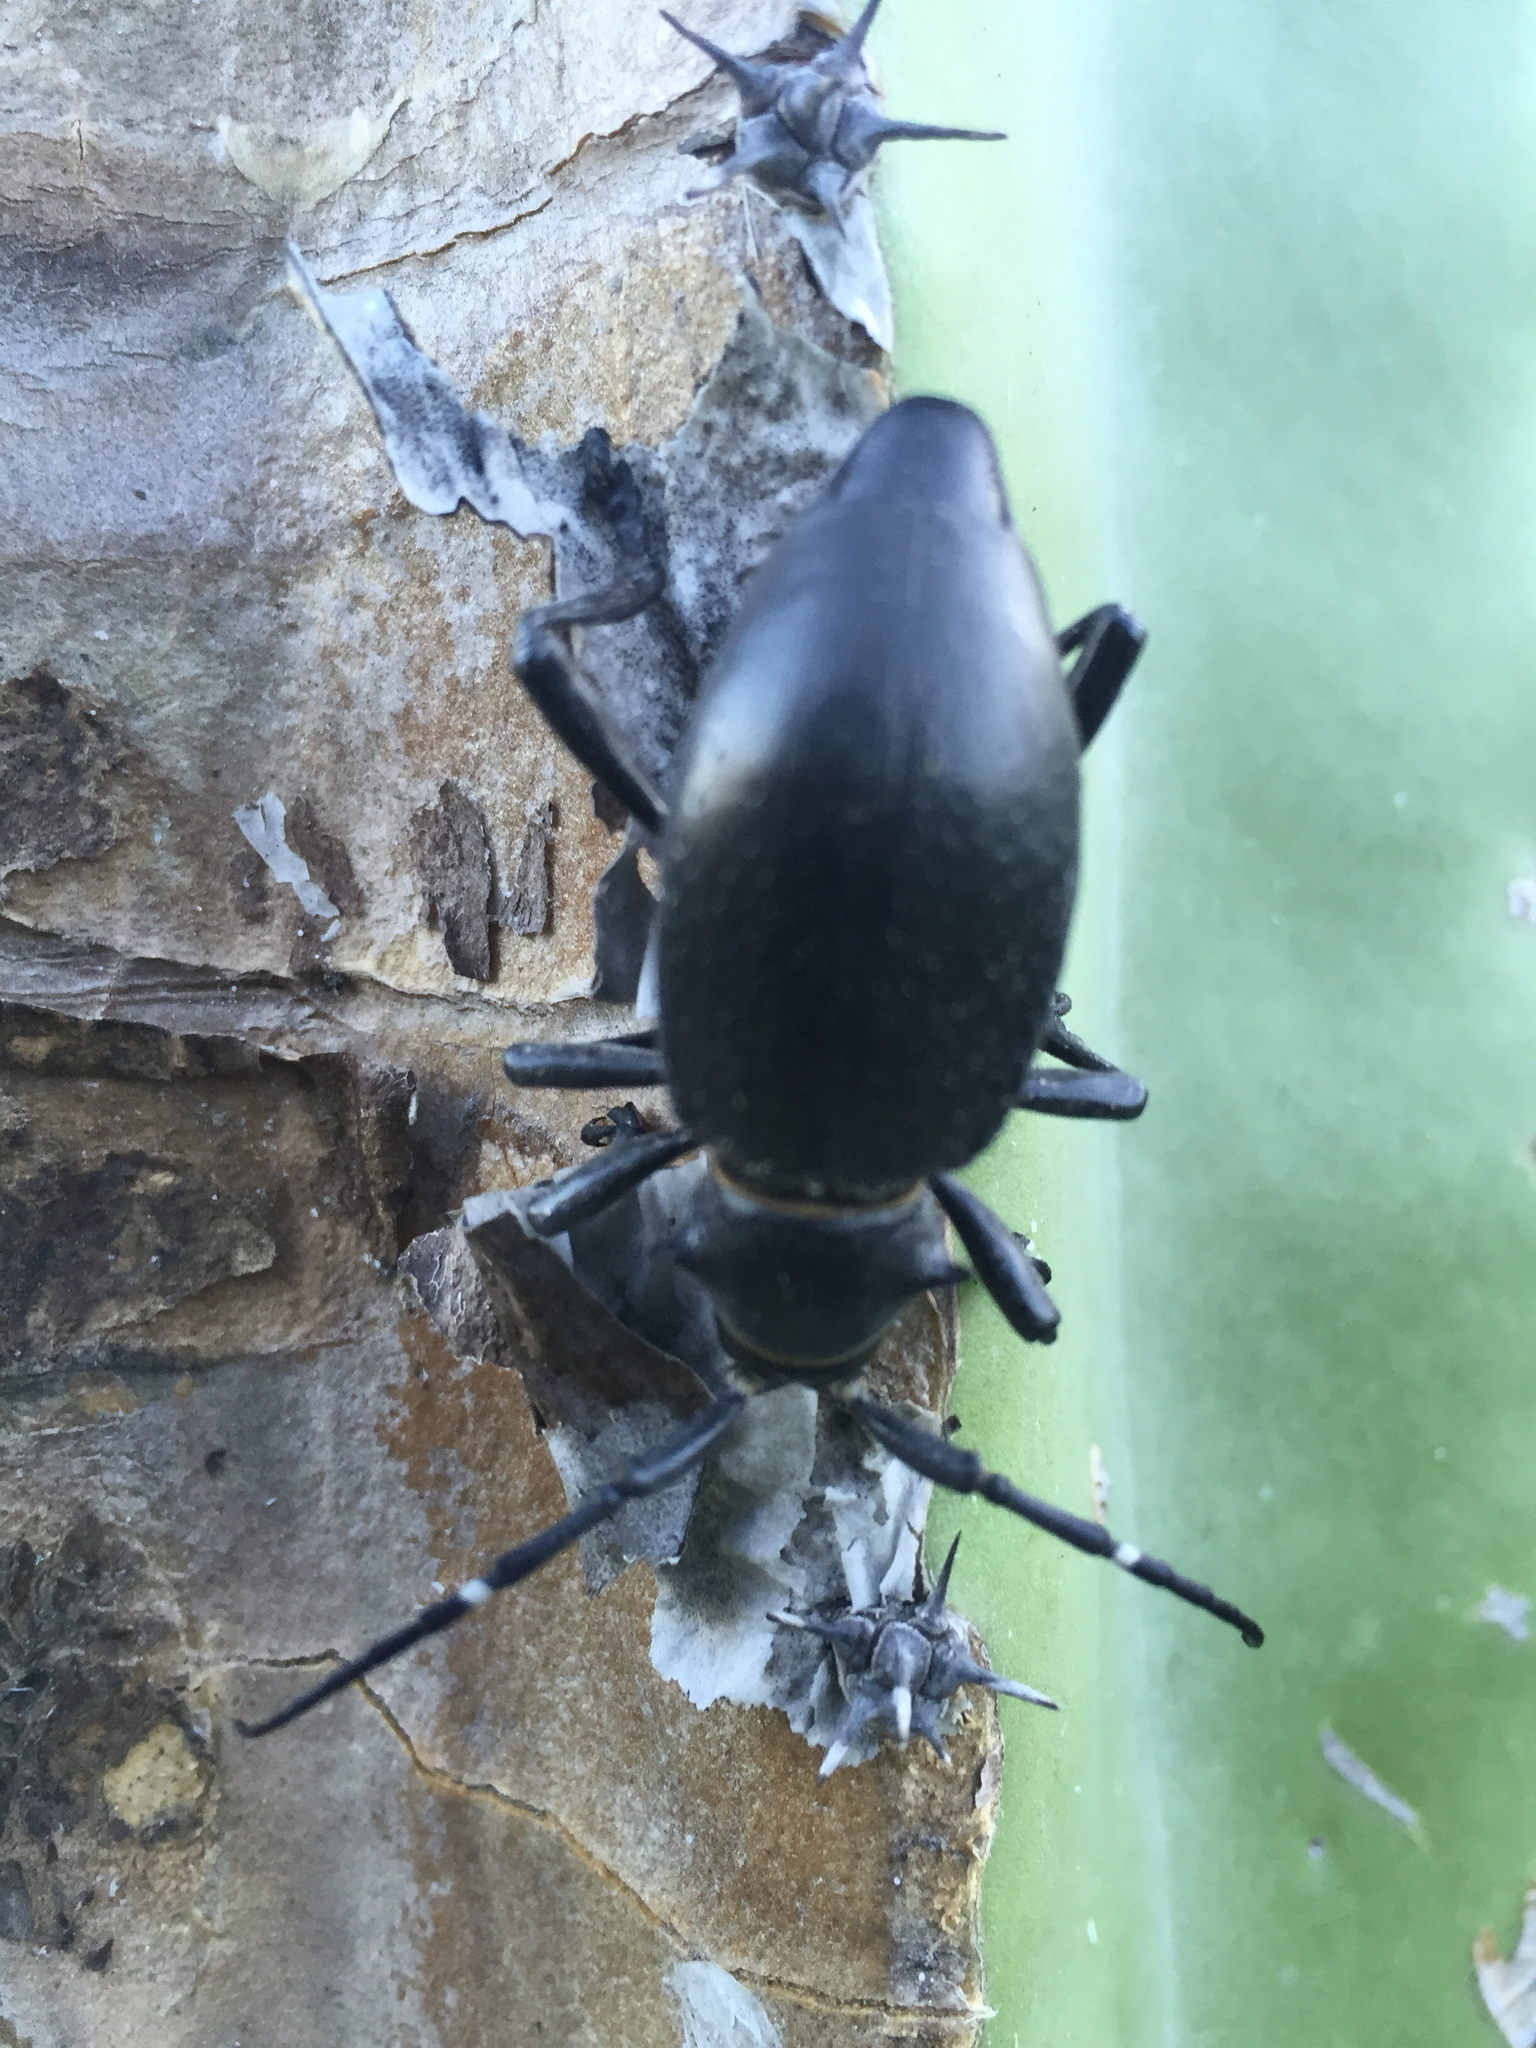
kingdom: Animalia
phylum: Arthropoda
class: Insecta
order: Coleoptera
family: Cerambycidae
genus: Moneilema
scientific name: Moneilema gigas
